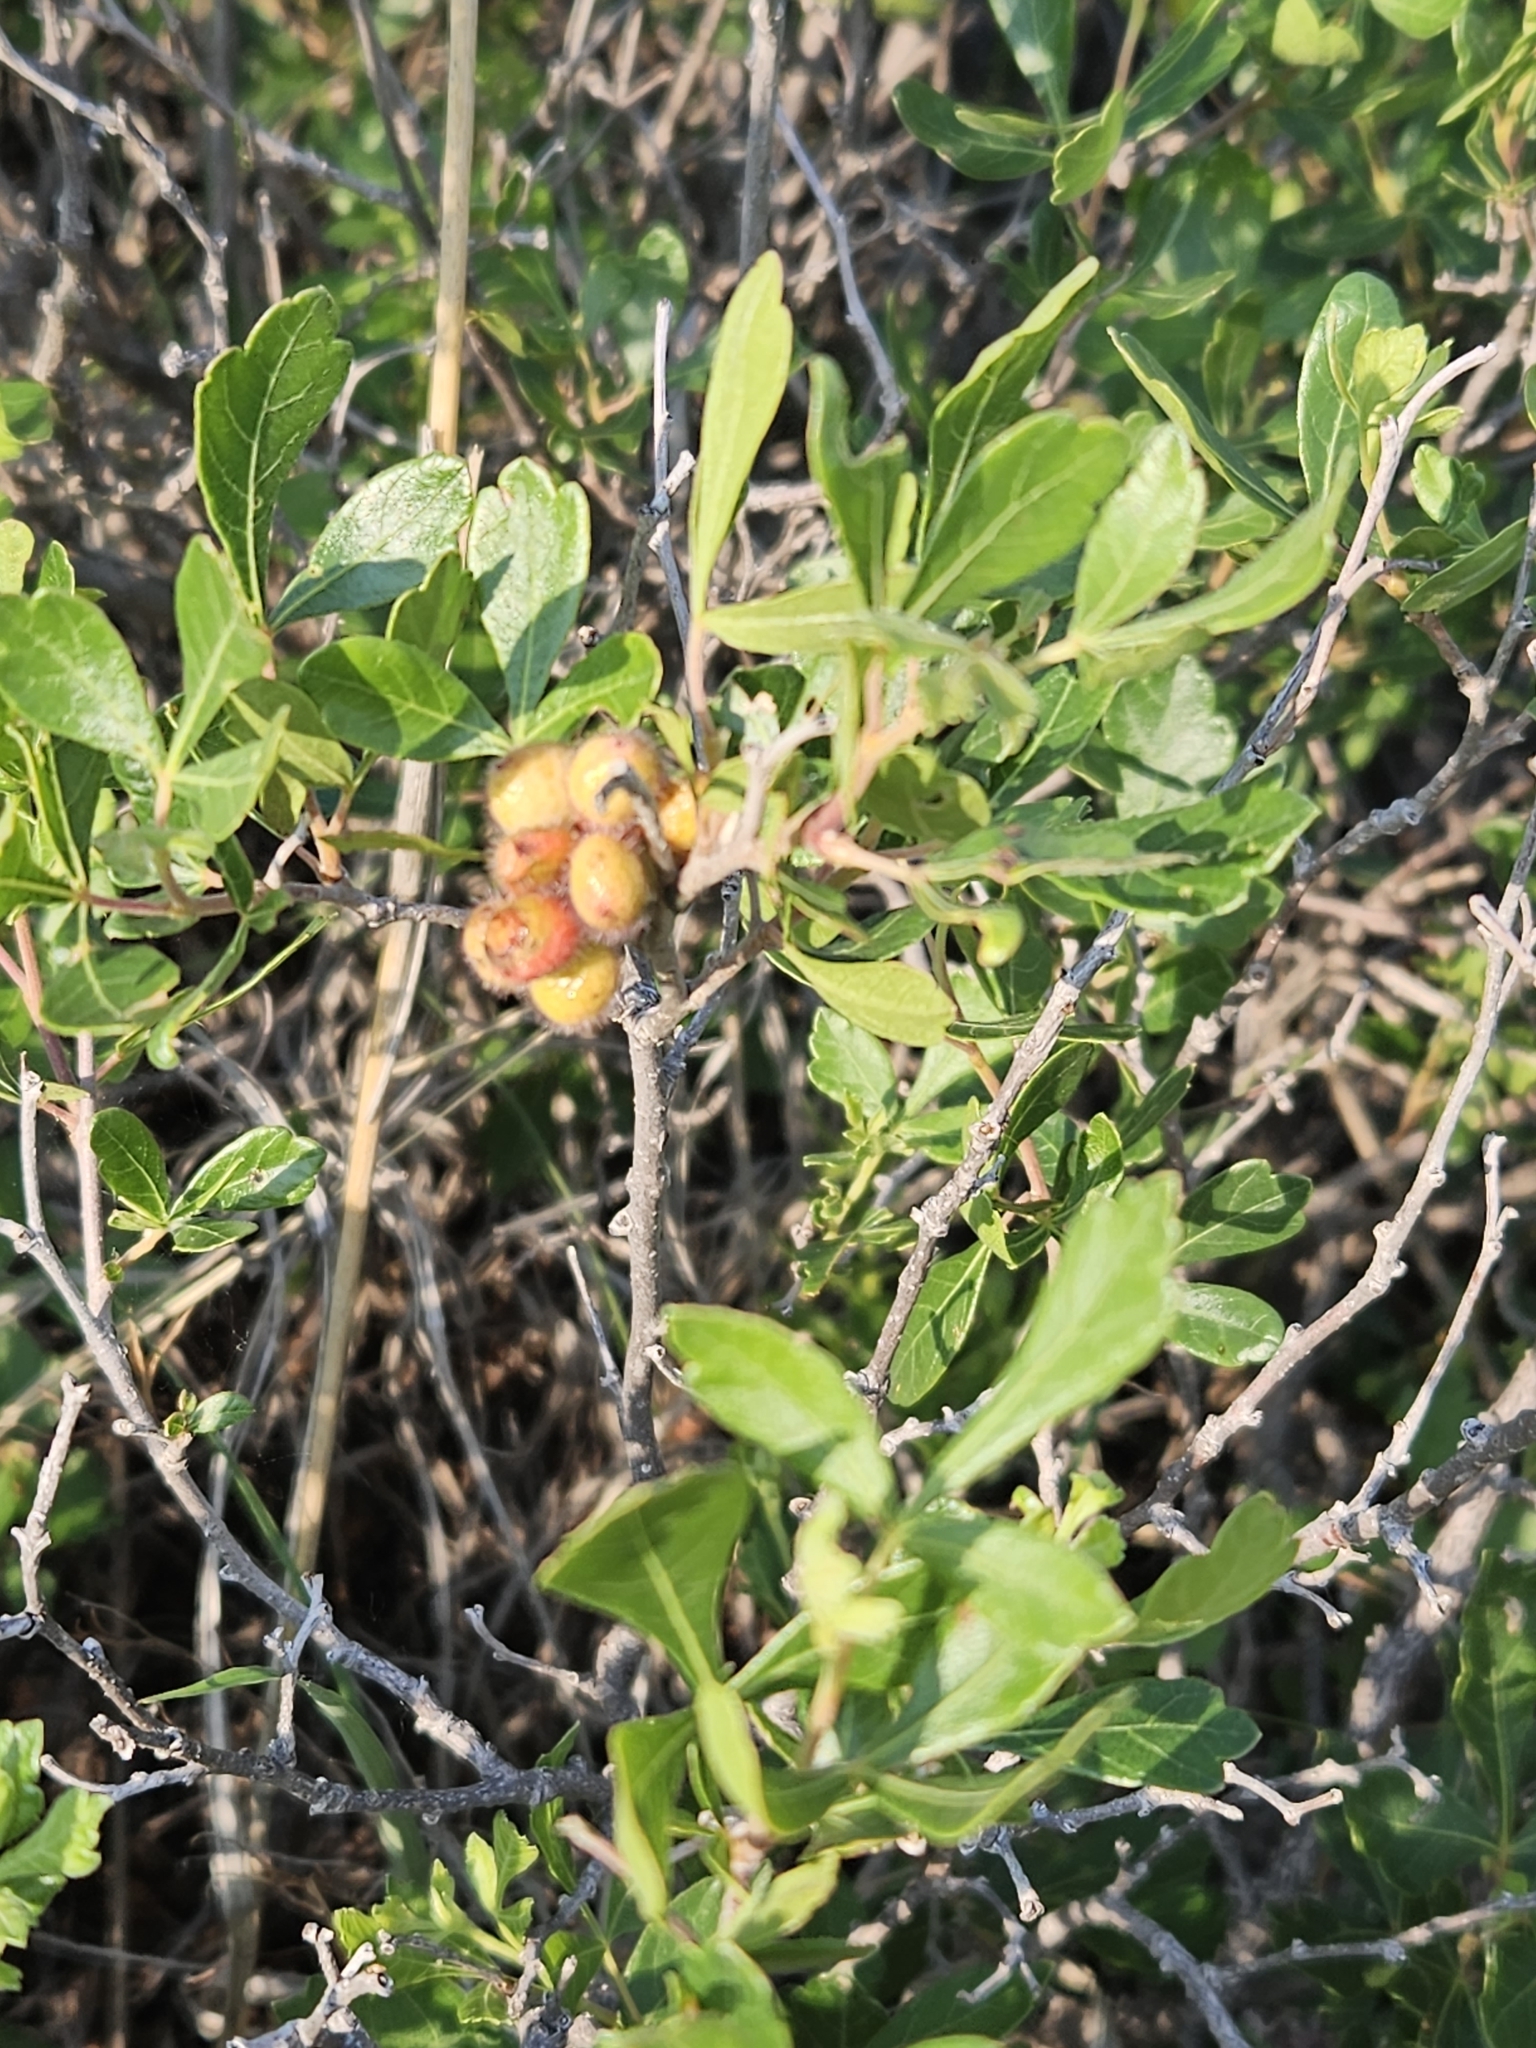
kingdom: Plantae
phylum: Tracheophyta
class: Magnoliopsida
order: Sapindales
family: Anacardiaceae
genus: Rhus
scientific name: Rhus aromatica
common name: Aromatic sumac
